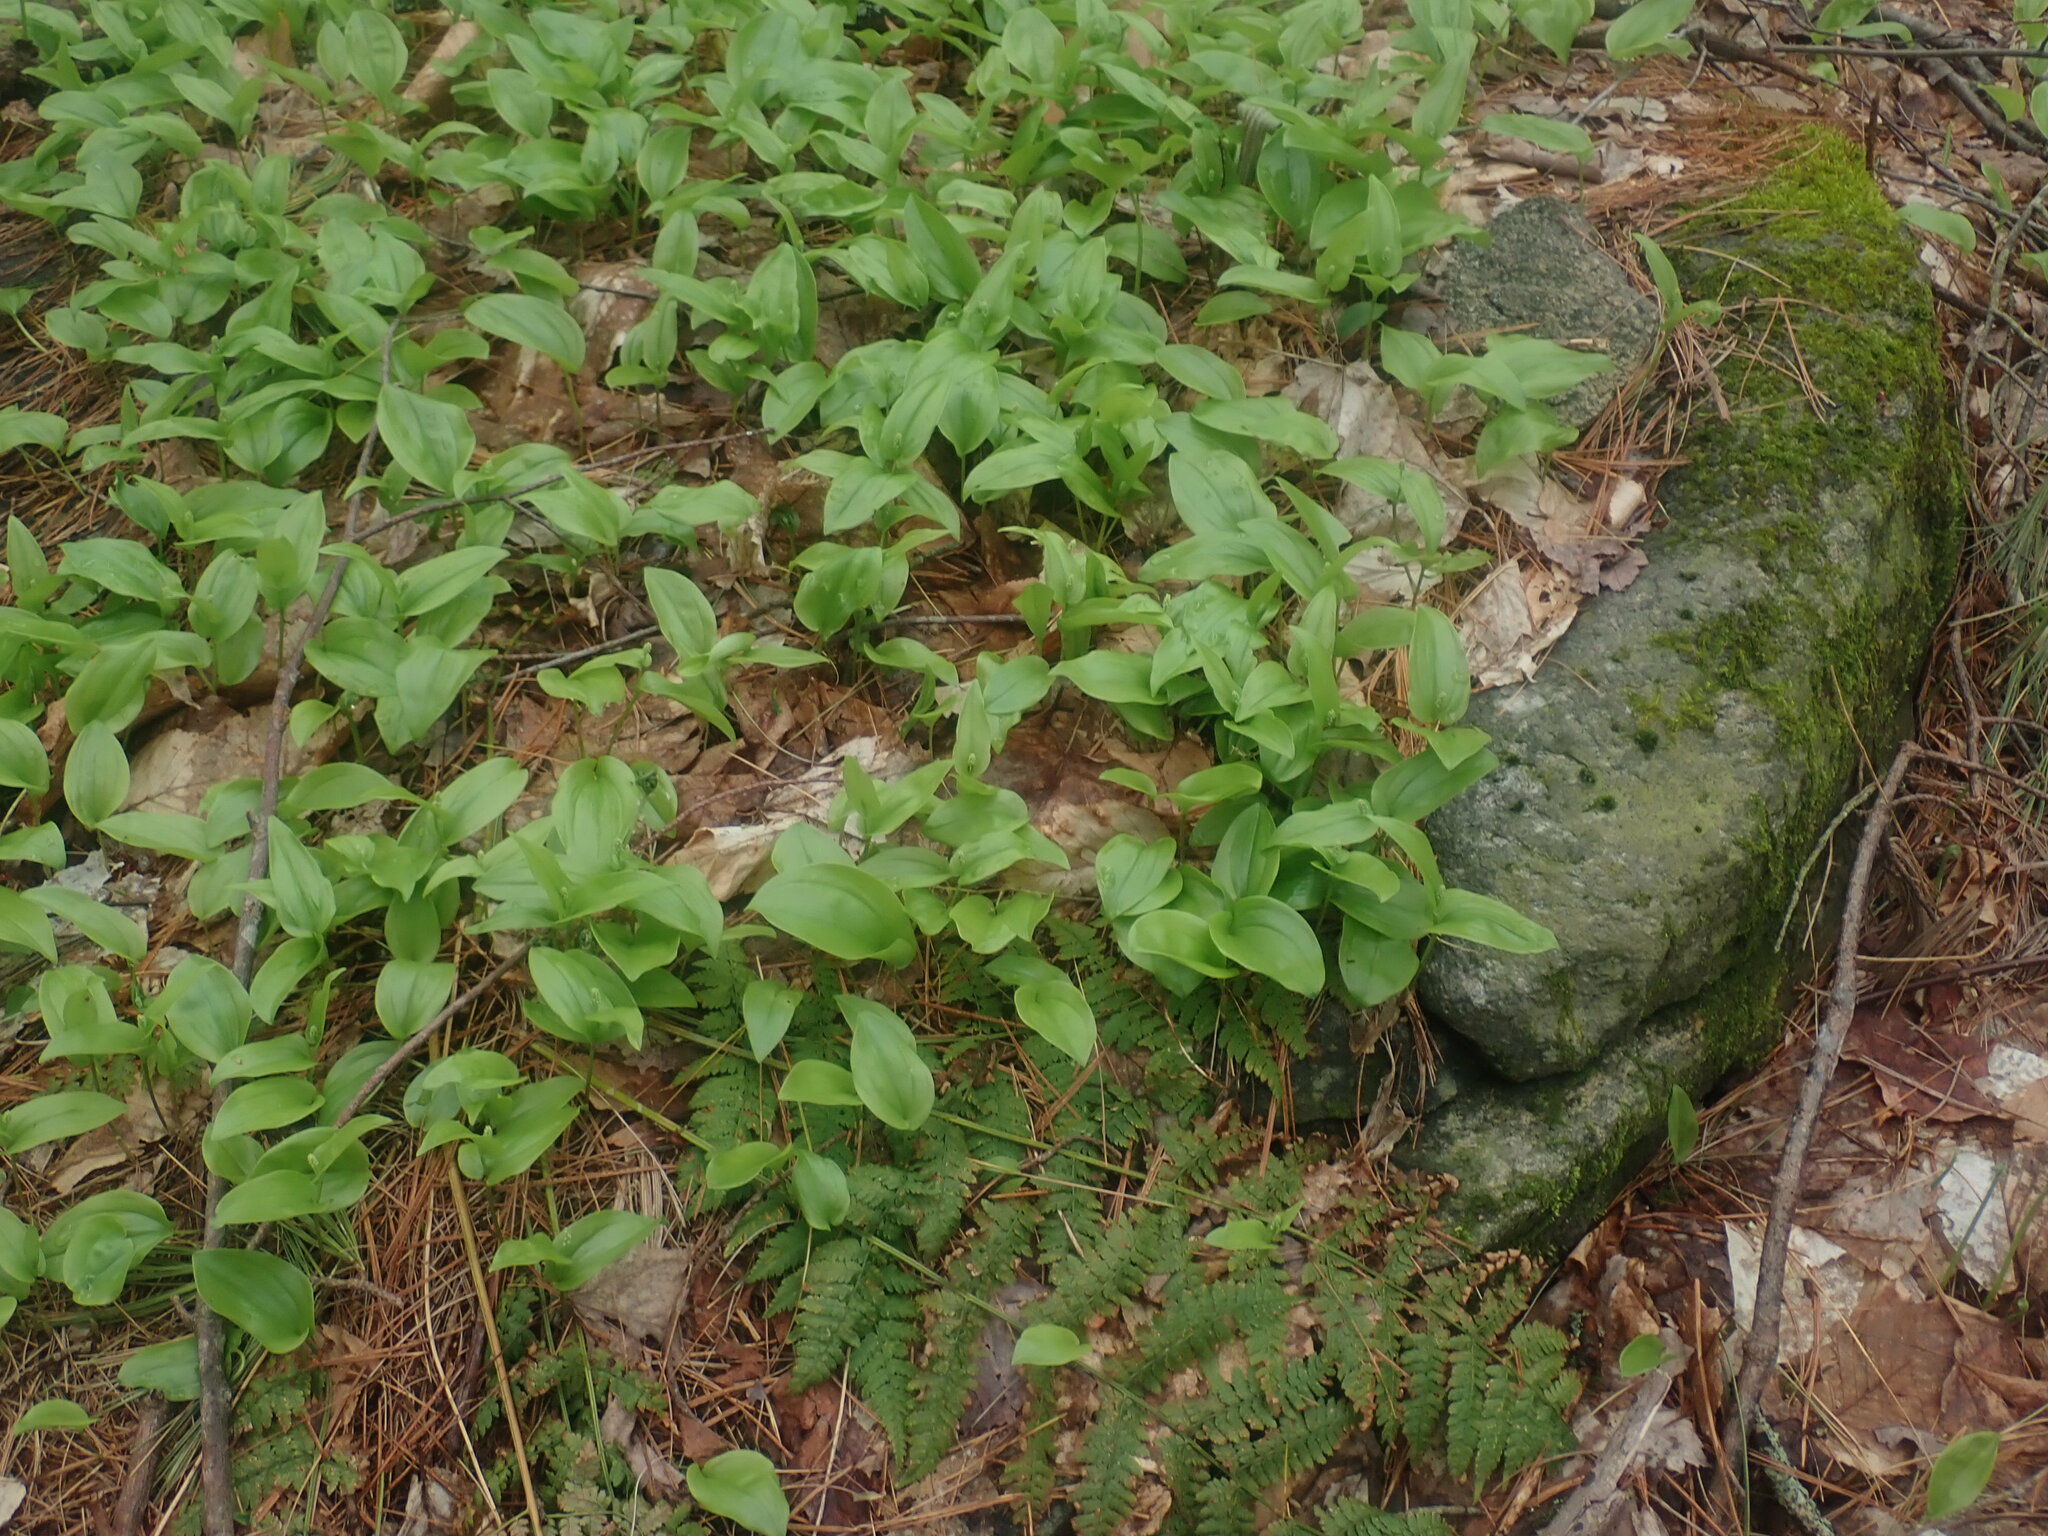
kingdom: Plantae
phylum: Tracheophyta
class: Liliopsida
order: Asparagales
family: Asparagaceae
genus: Maianthemum
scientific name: Maianthemum canadense
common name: False lily-of-the-valley
